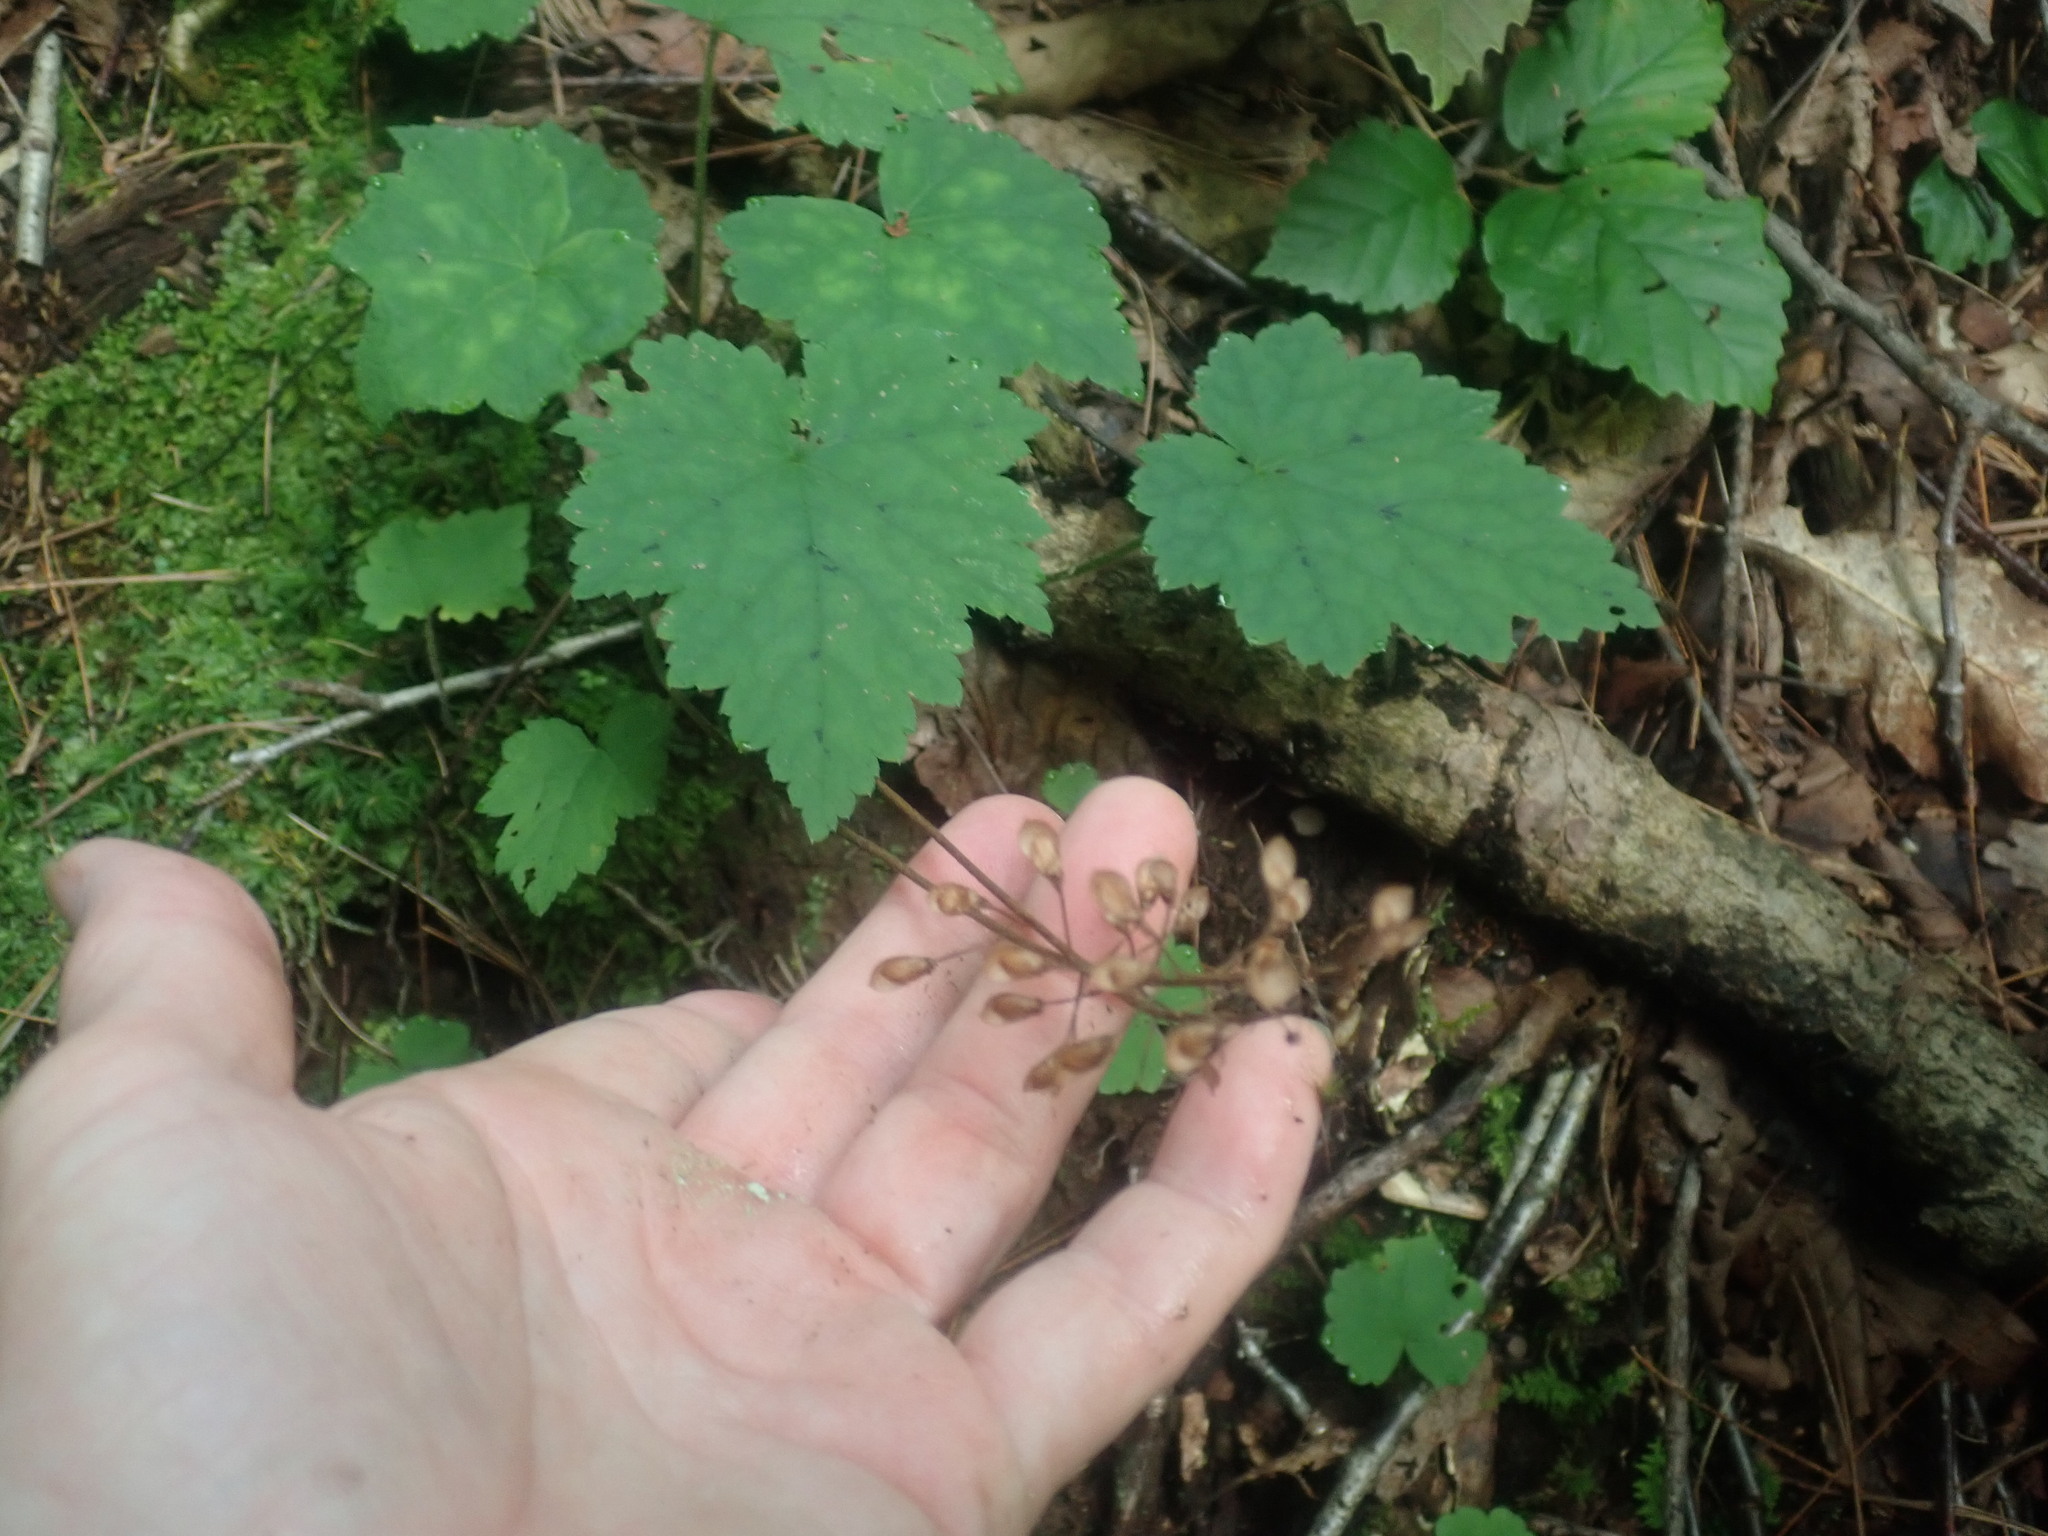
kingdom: Plantae
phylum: Tracheophyta
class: Magnoliopsida
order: Saxifragales
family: Saxifragaceae
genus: Tiarella
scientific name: Tiarella stolonifera
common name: Stoloniferous foamflower
